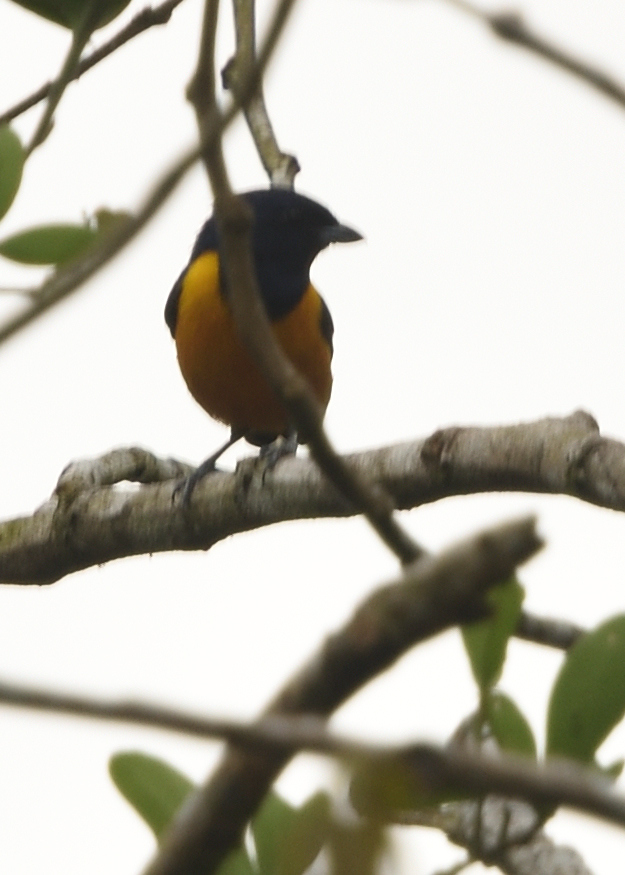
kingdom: Animalia
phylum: Chordata
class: Aves
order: Passeriformes
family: Fringillidae
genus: Euphonia
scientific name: Euphonia rufiventris
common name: Rufous-bellied euphonia
